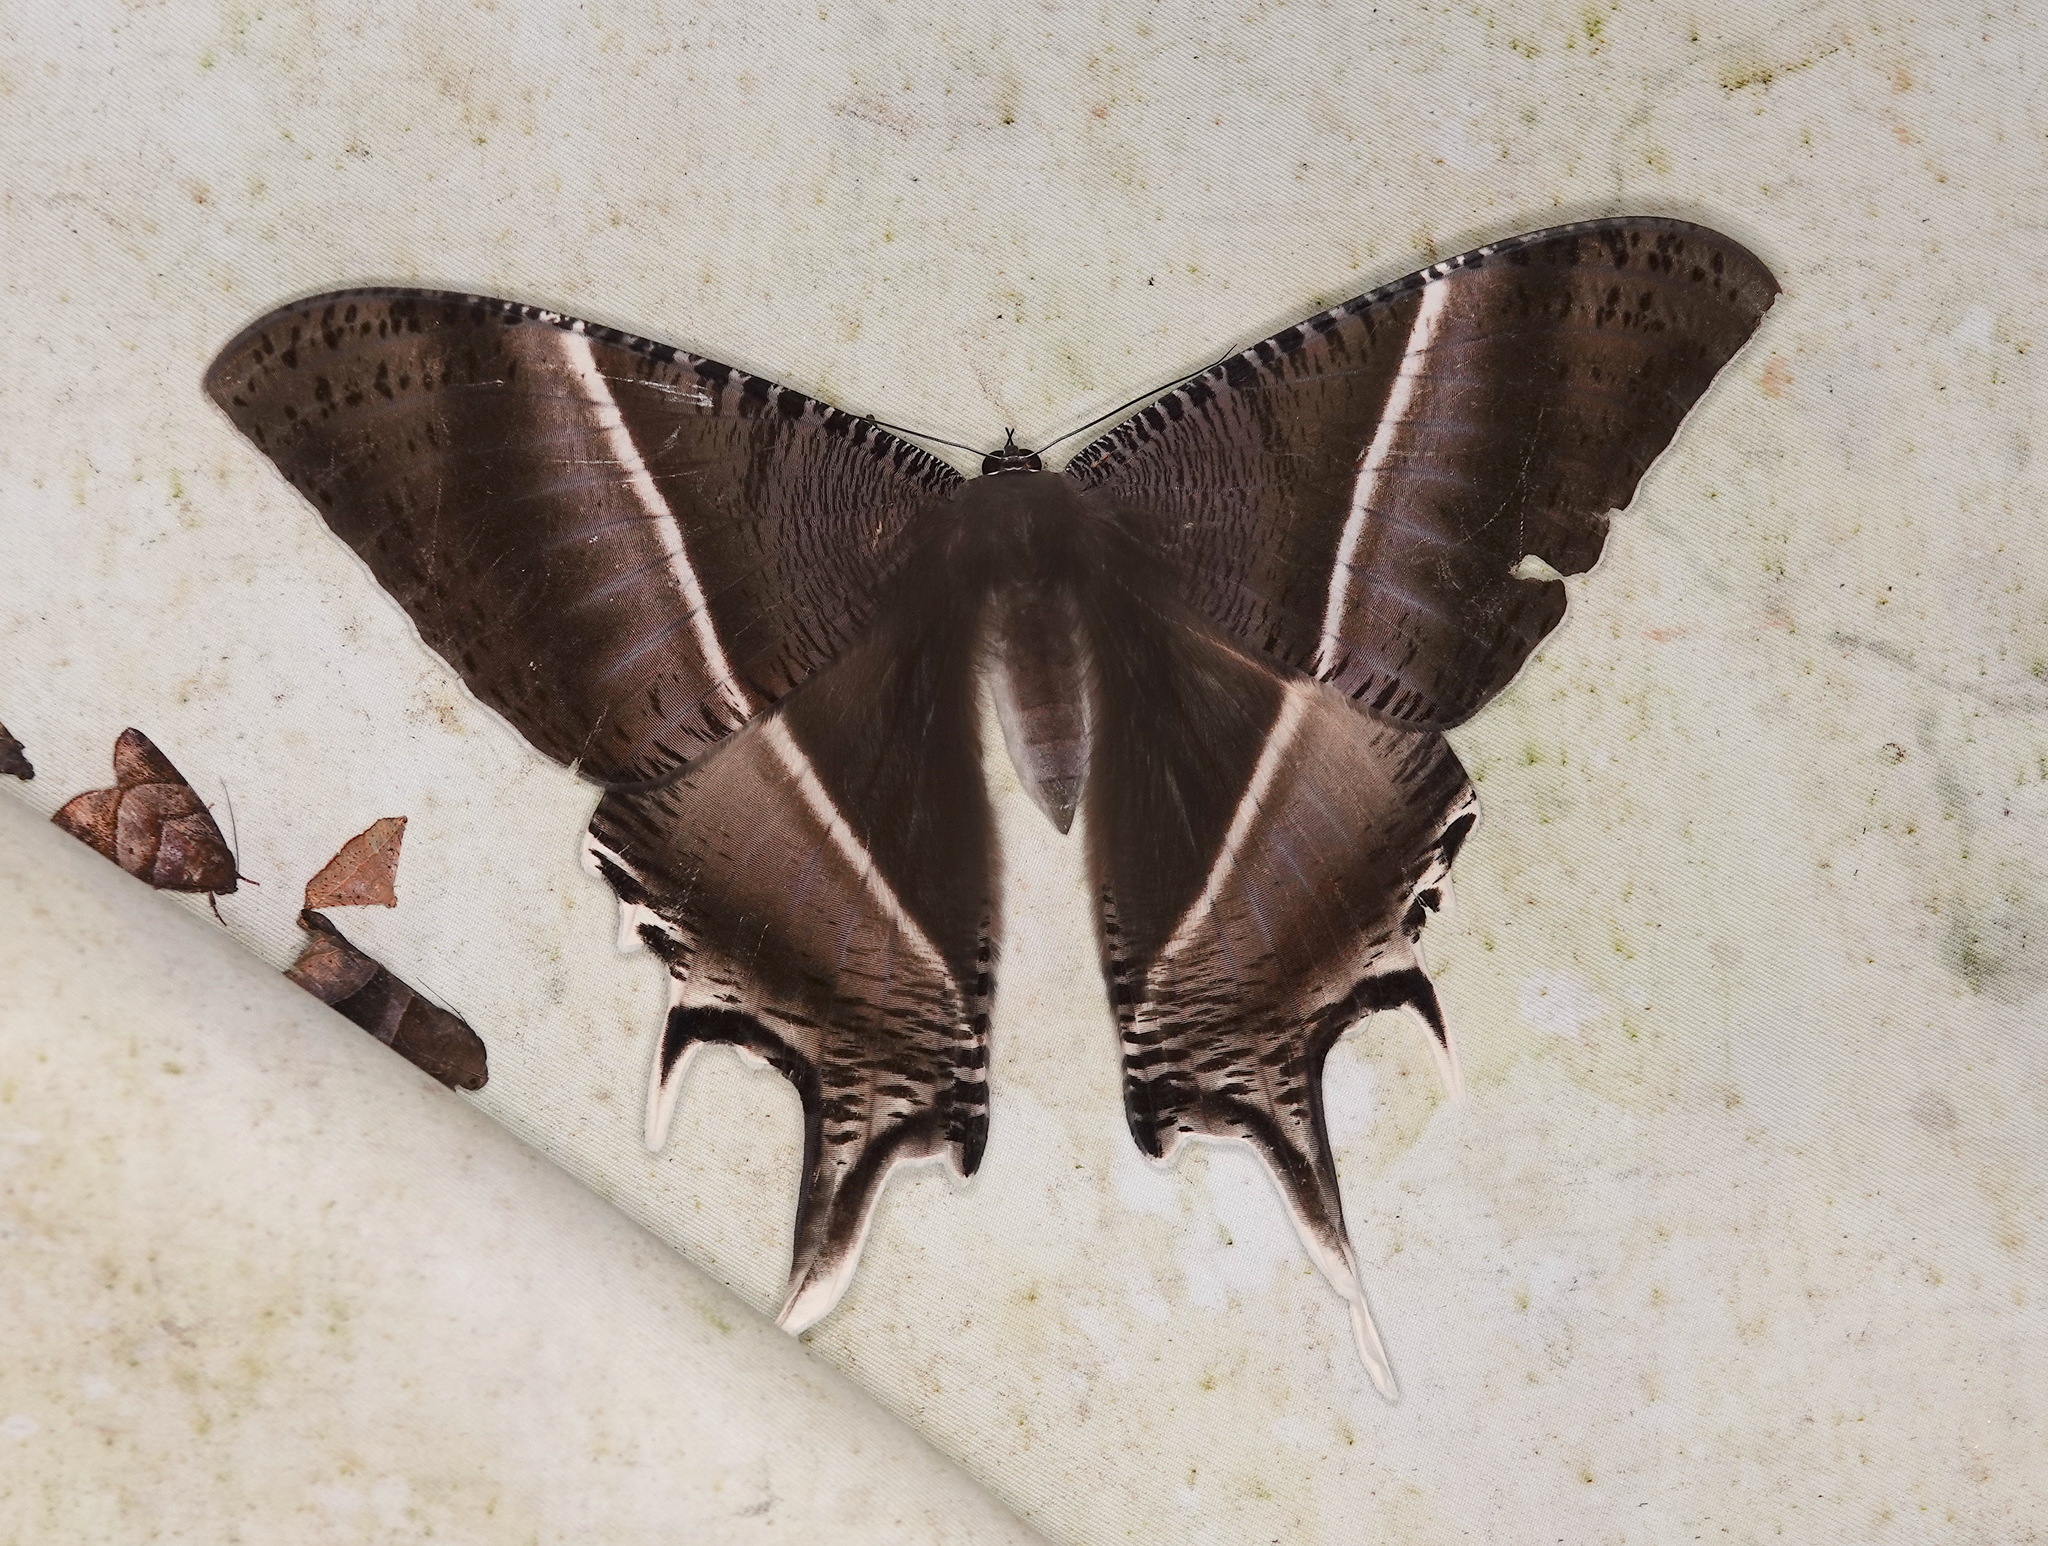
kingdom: Animalia
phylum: Arthropoda
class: Insecta
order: Lepidoptera
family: Uraniidae
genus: Lyssa
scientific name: Lyssa zampa
